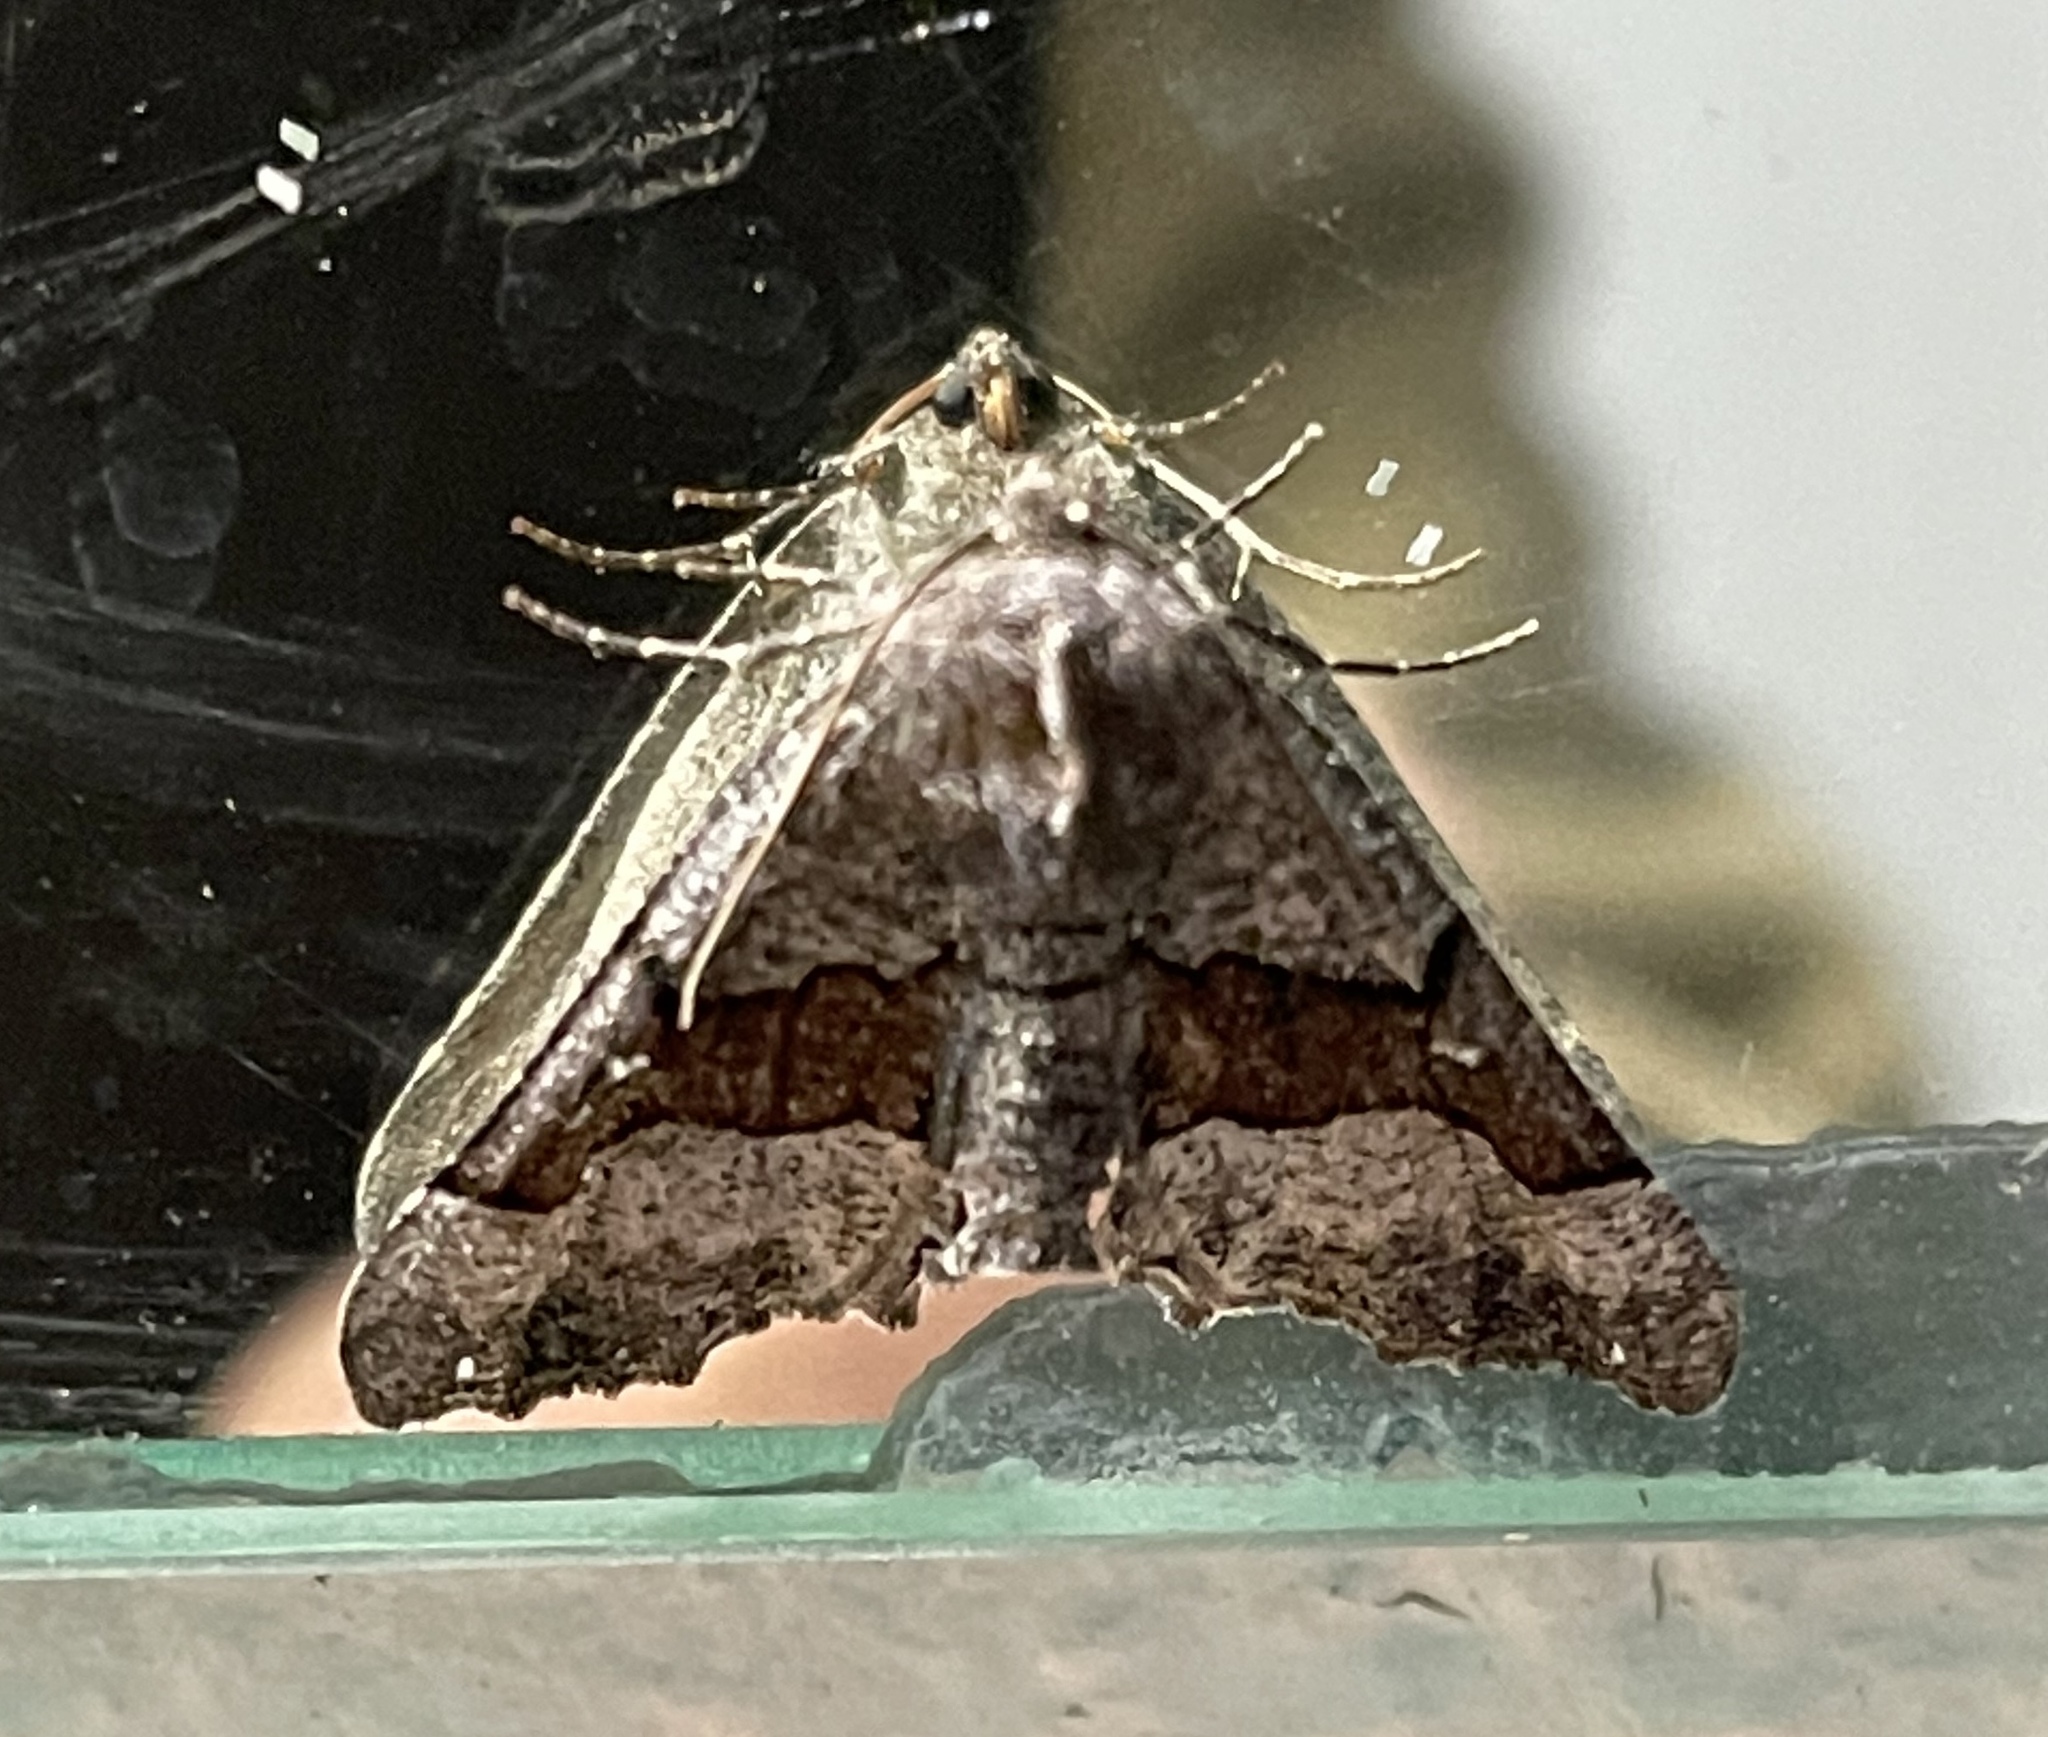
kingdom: Animalia
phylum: Arthropoda
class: Insecta
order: Lepidoptera
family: Geometridae
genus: Pero
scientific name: Pero behrensaria
